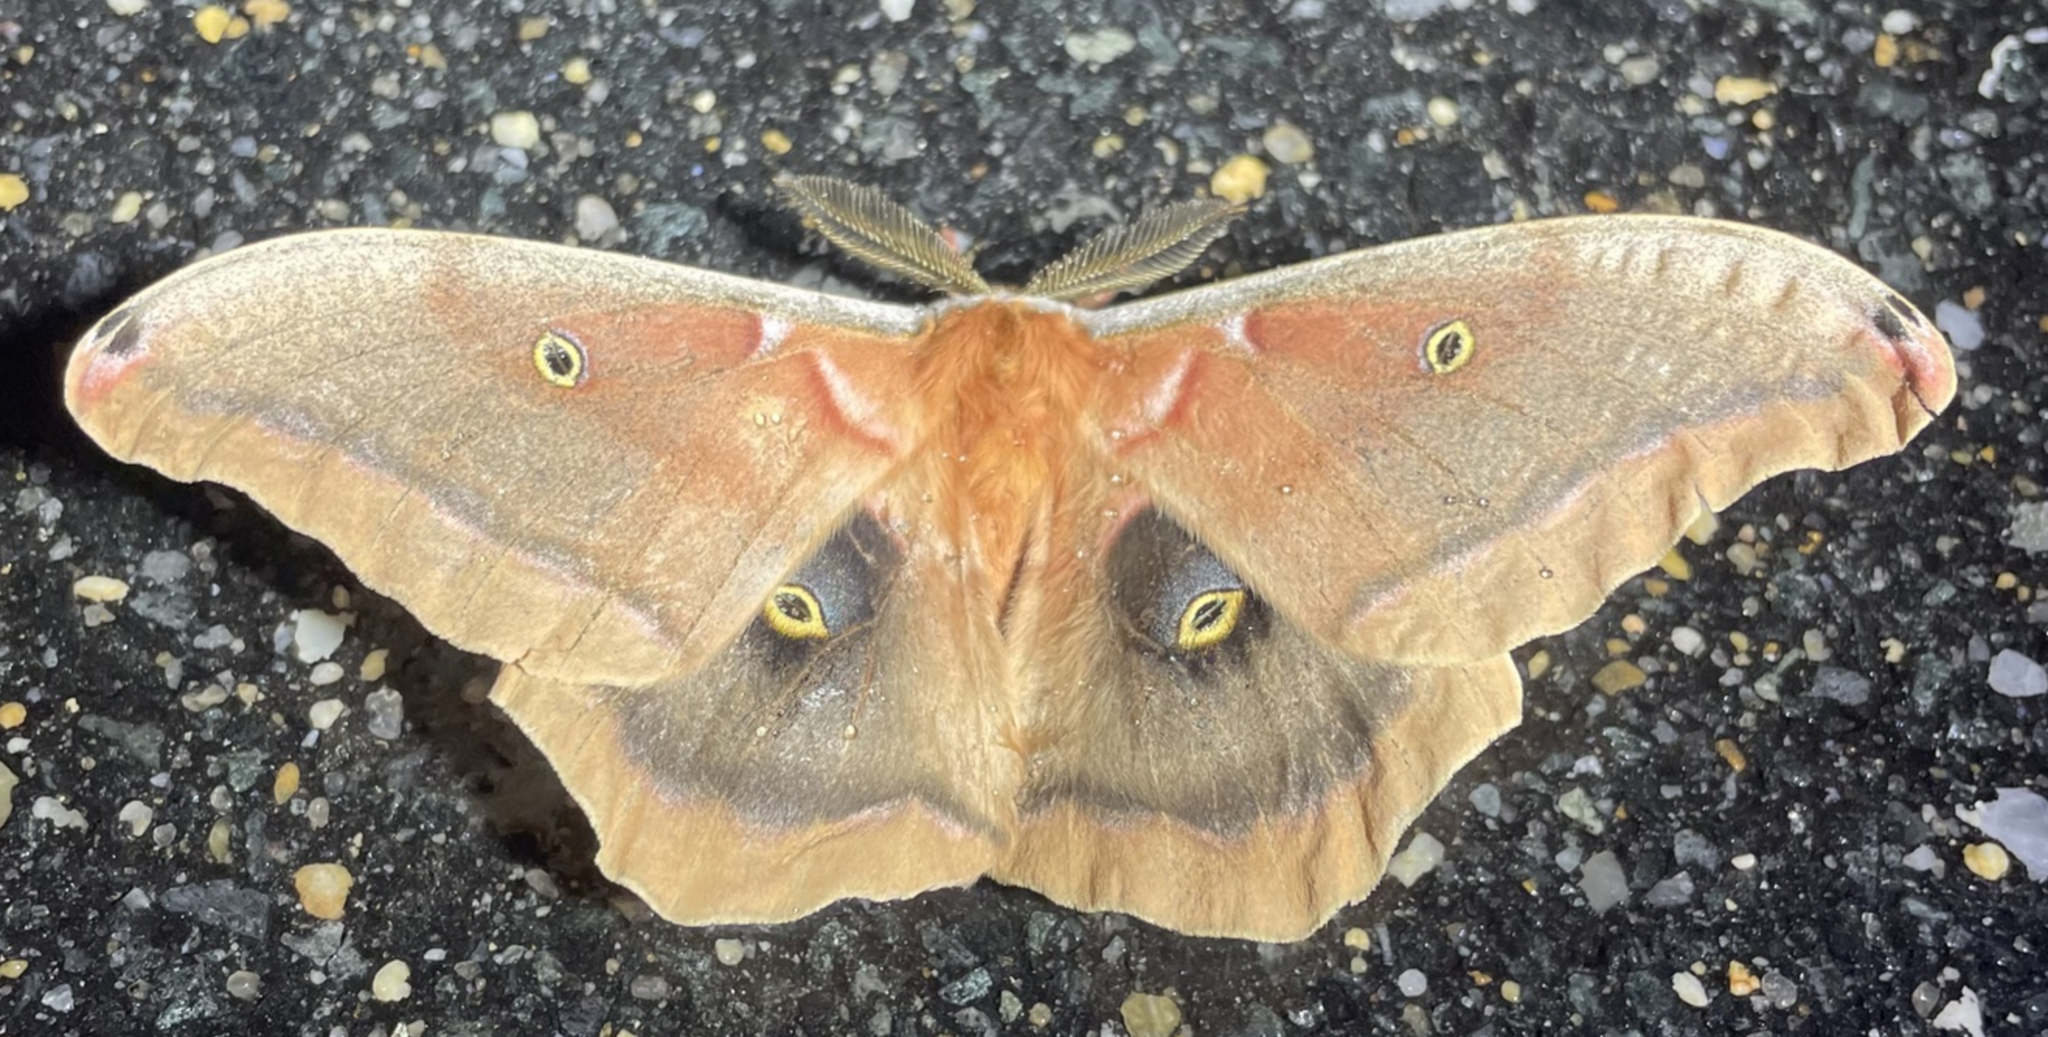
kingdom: Animalia
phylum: Arthropoda
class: Insecta
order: Lepidoptera
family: Saturniidae
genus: Antheraea
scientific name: Antheraea polyphemus
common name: Polyphemus moth
